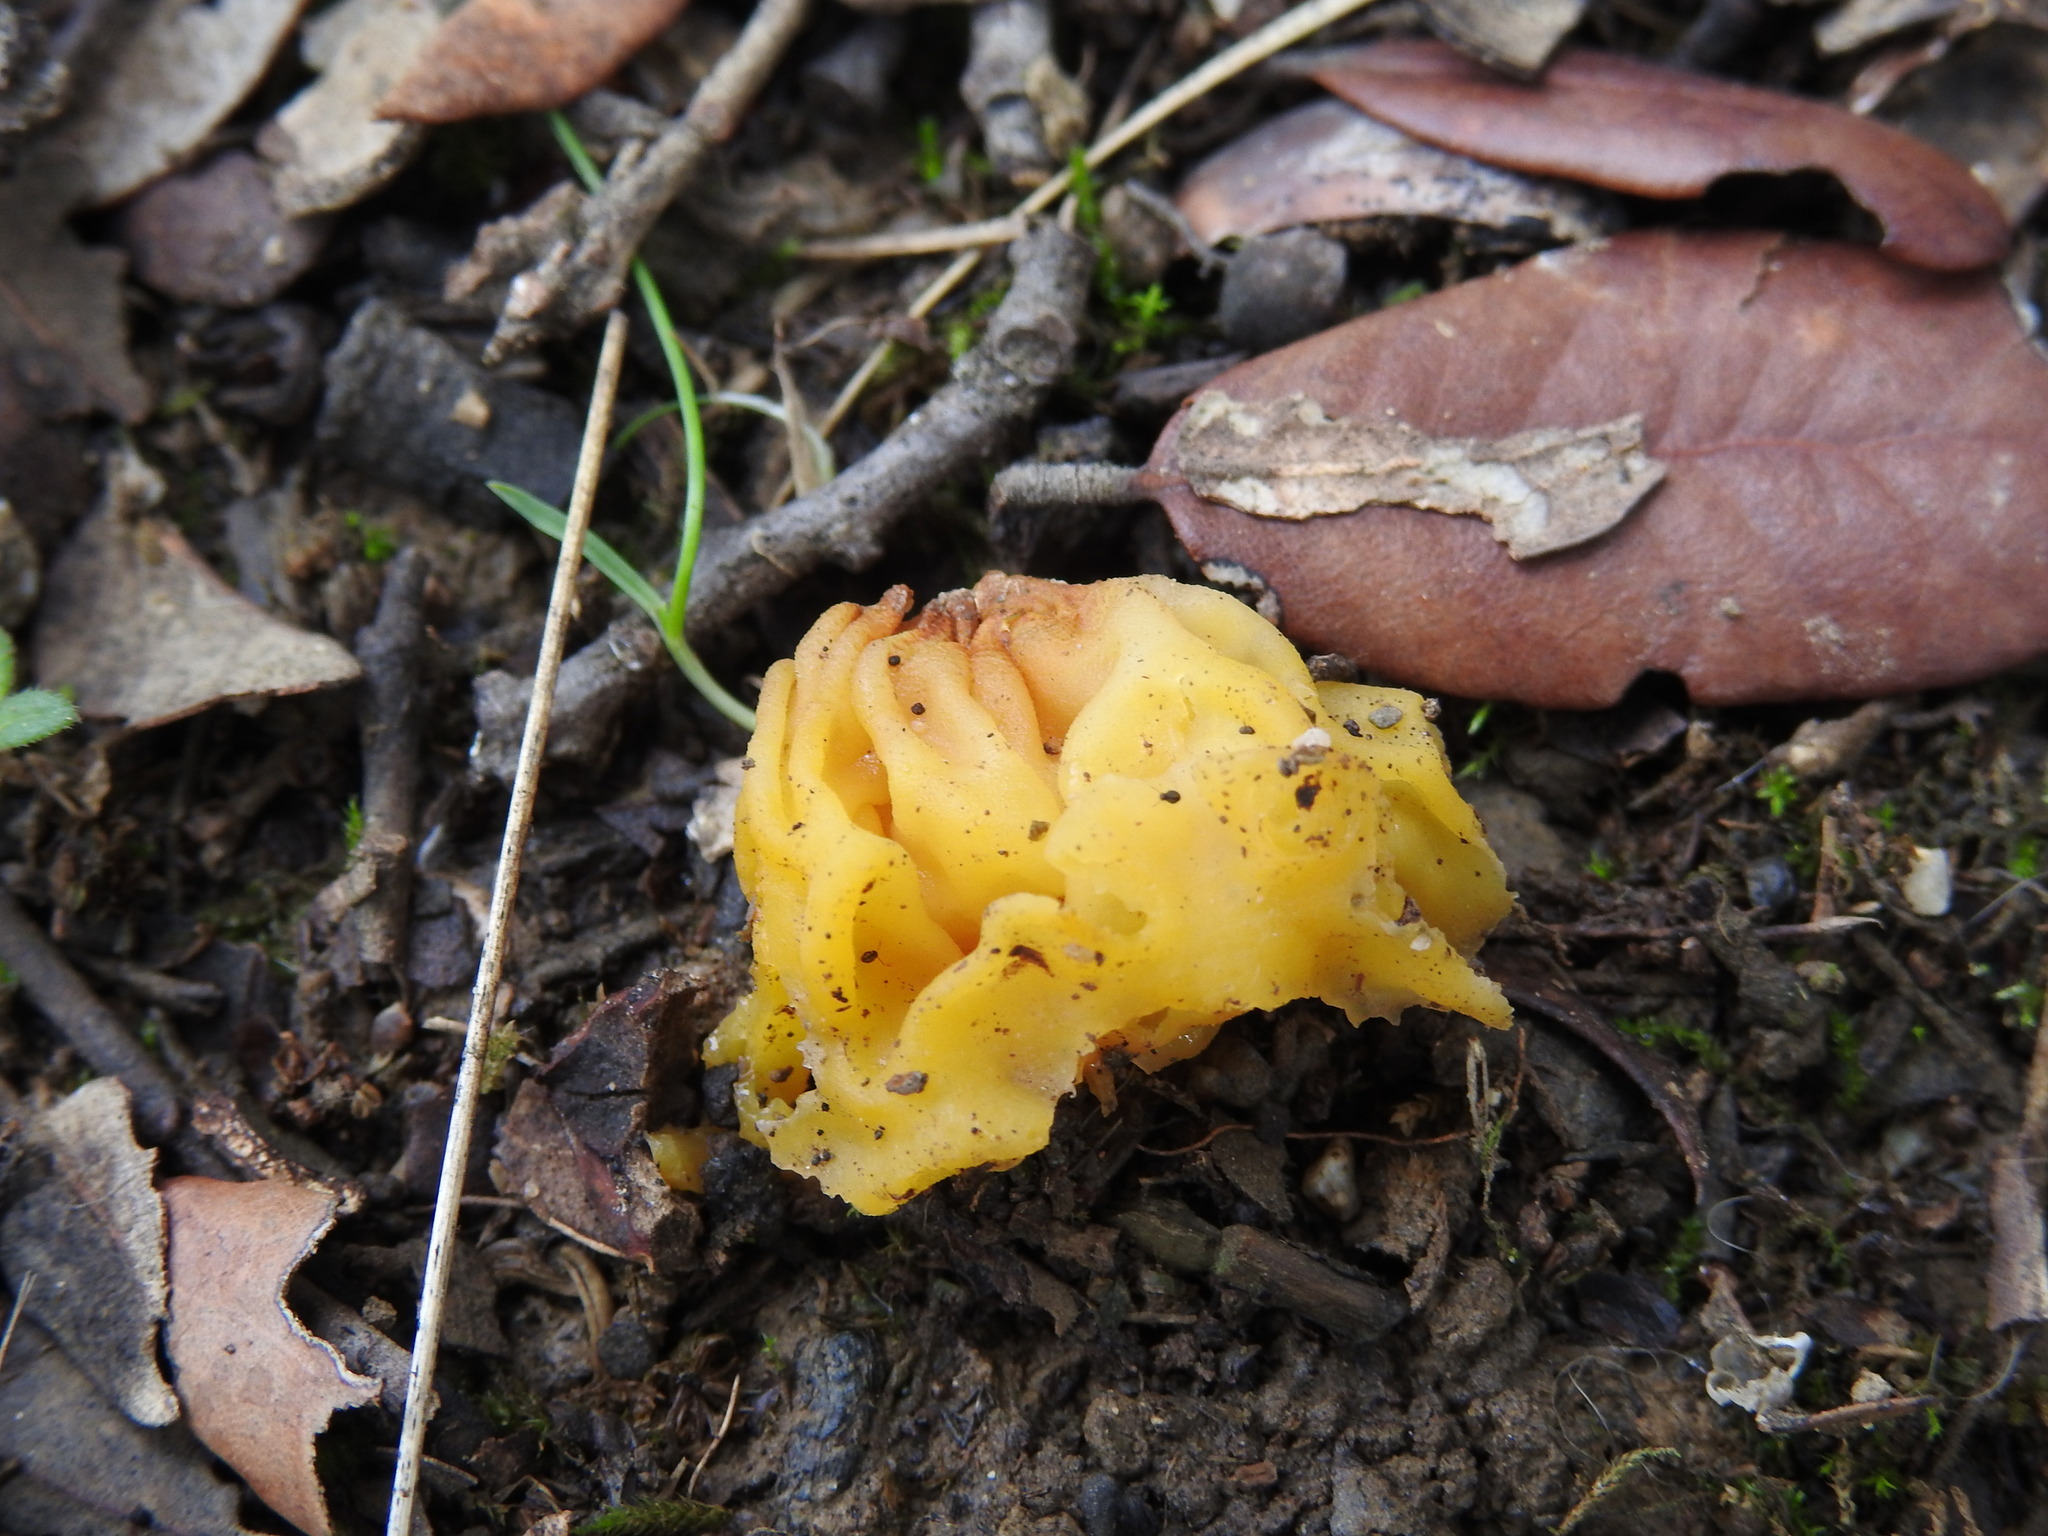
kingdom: Fungi
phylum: Basidiomycota
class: Tremellomycetes
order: Tremellales
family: Naemateliaceae
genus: Naematelia
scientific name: Naematelia aurantia
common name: Golden ear
